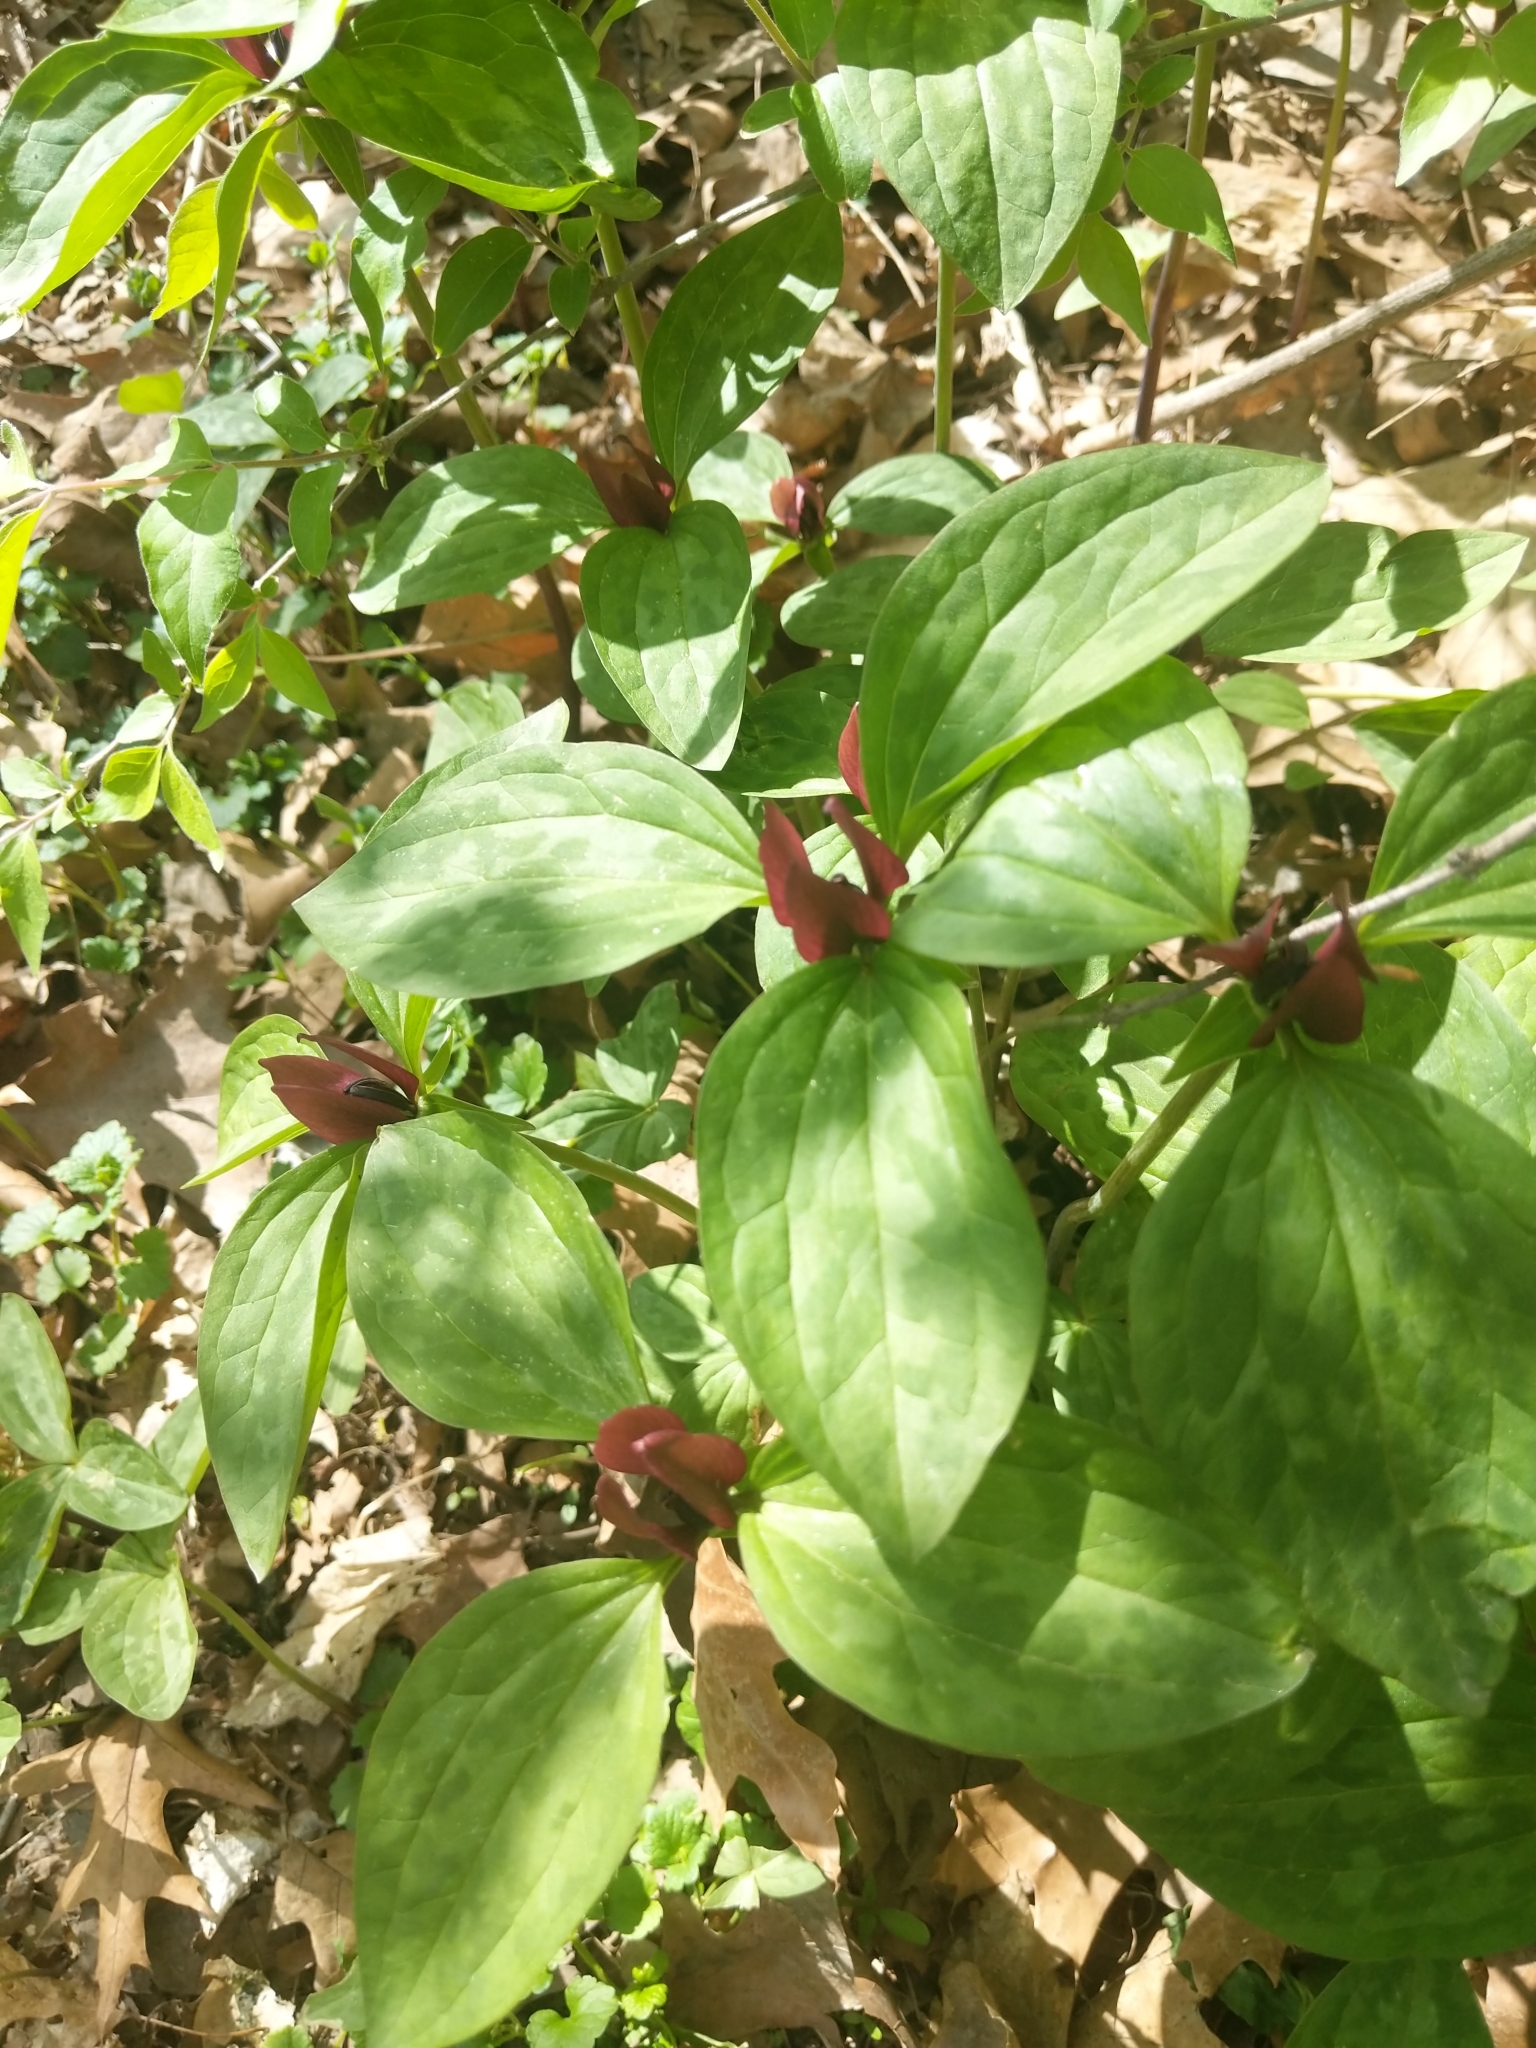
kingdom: Plantae
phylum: Tracheophyta
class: Liliopsida
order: Liliales
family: Melanthiaceae
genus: Trillium
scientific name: Trillium recurvatum
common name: Bloody butcher
